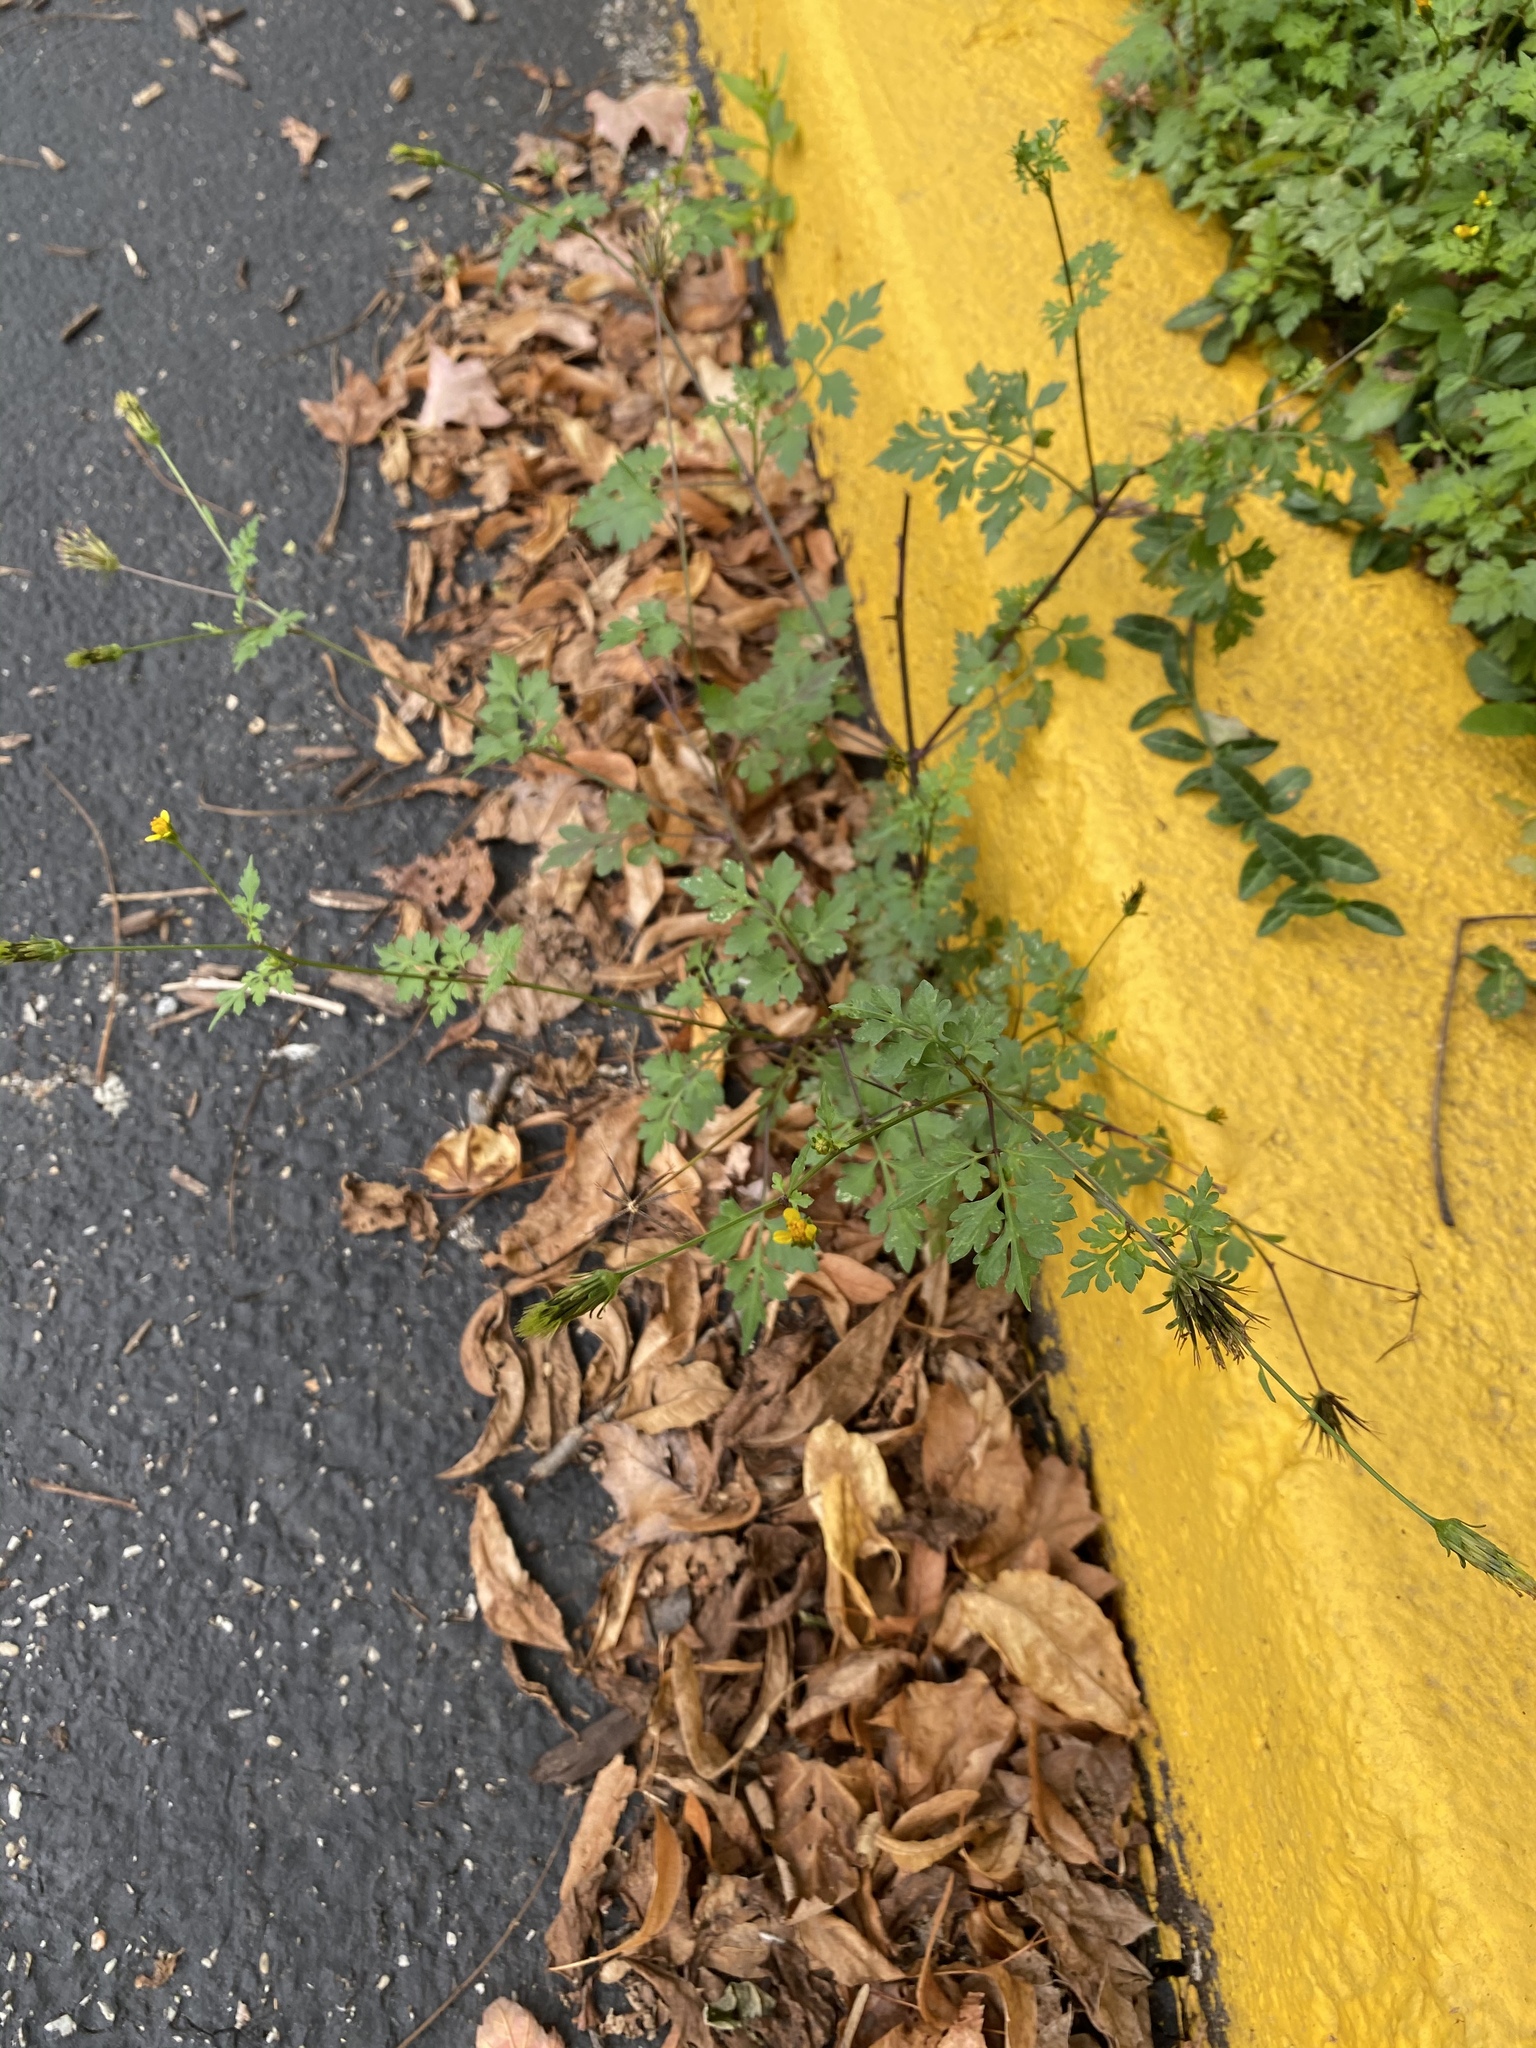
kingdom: Plantae
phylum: Tracheophyta
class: Magnoliopsida
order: Asterales
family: Asteraceae
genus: Bidens
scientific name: Bidens bipinnata
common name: Spanish-needles
